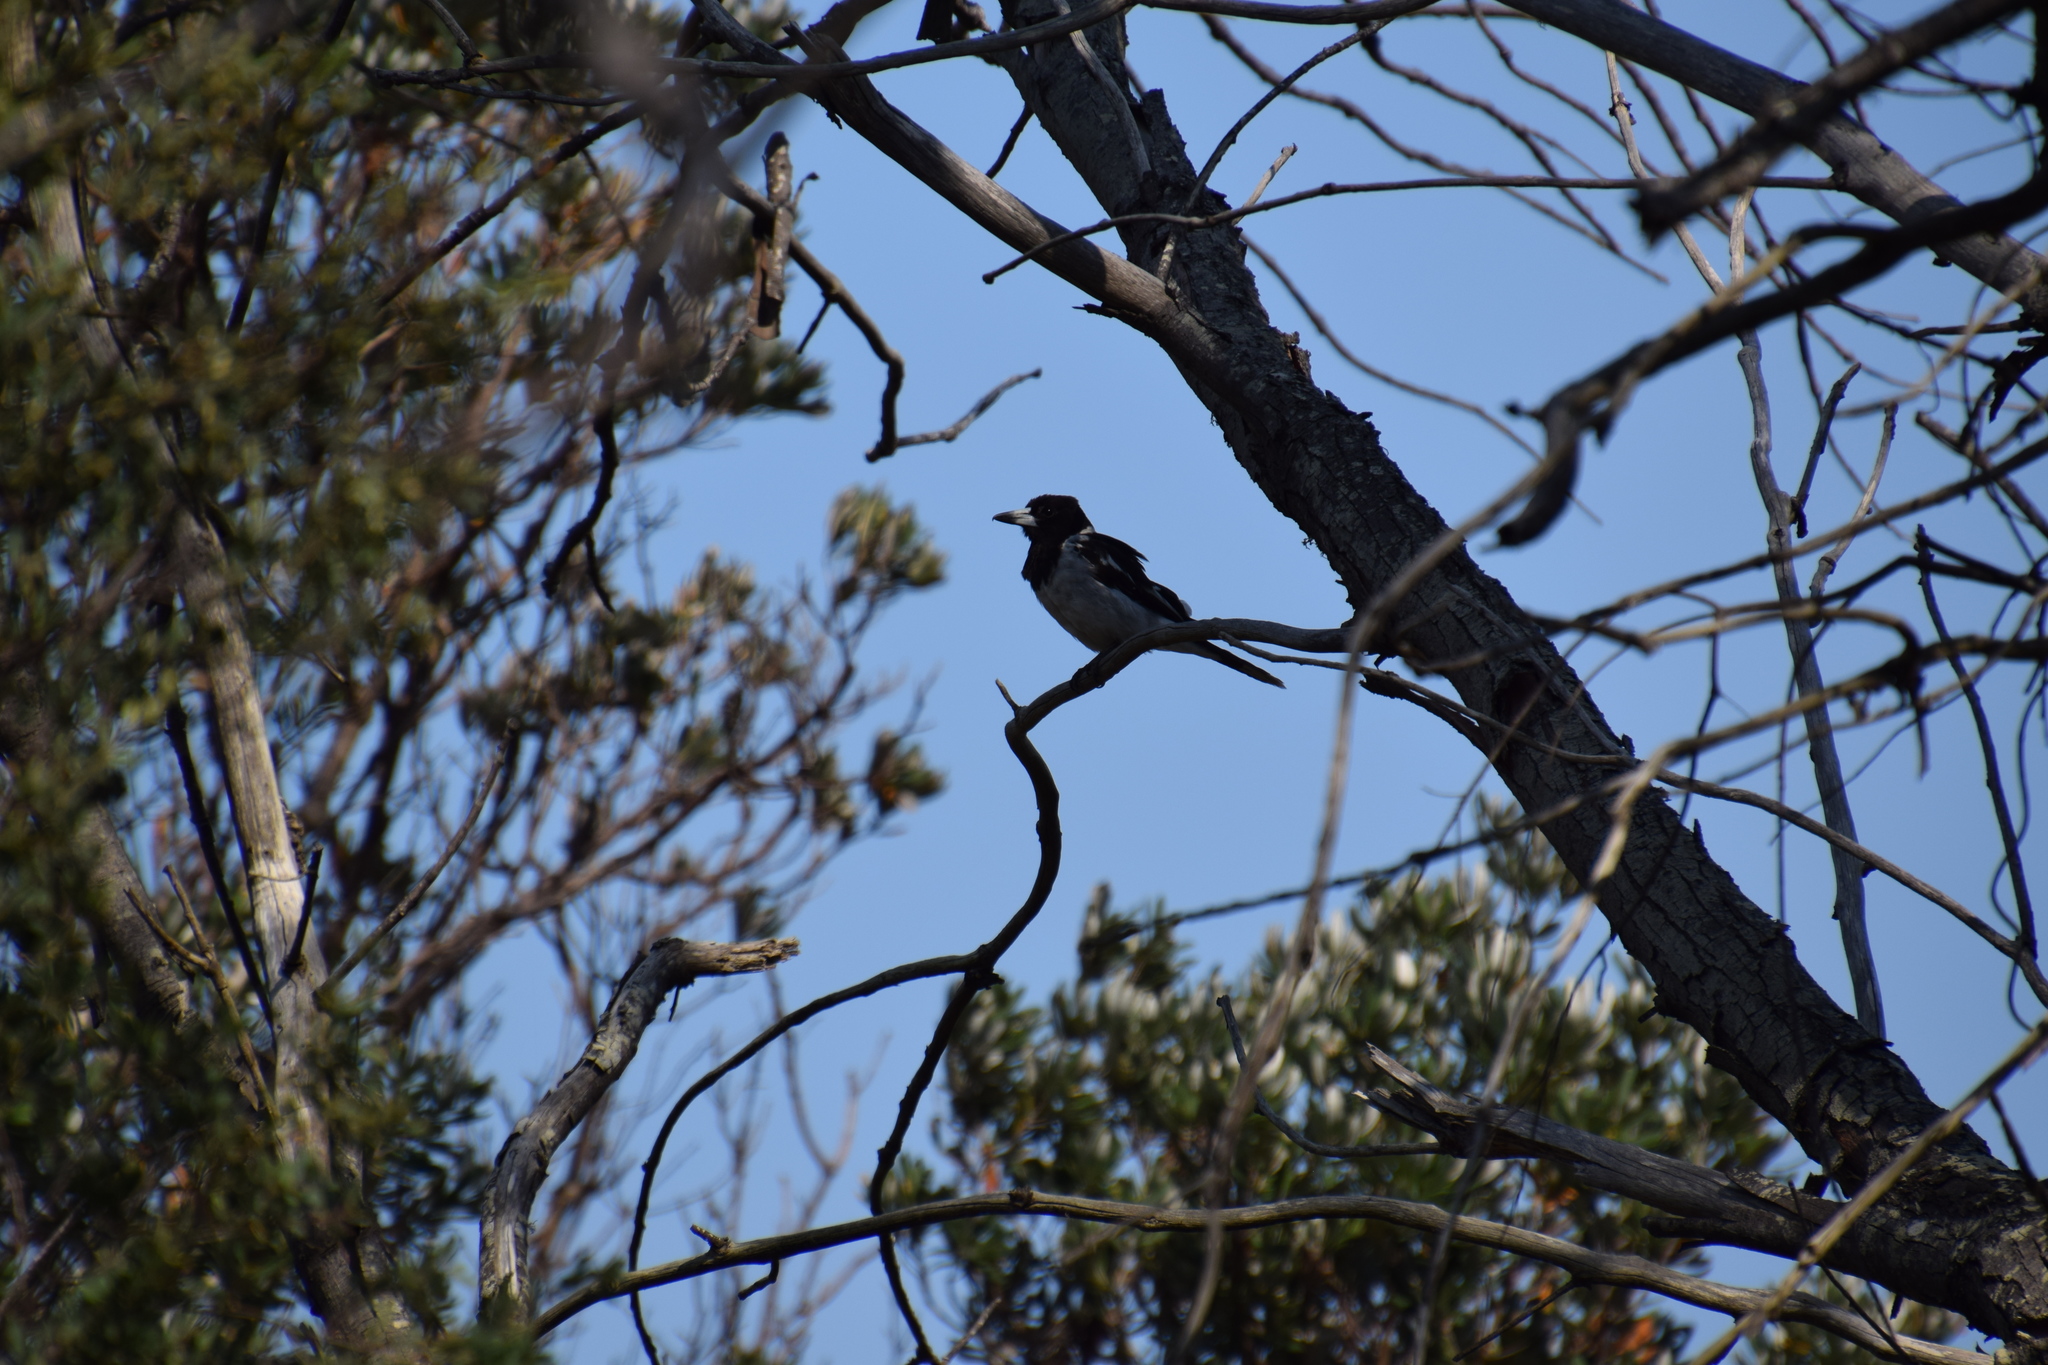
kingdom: Animalia
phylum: Chordata
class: Aves
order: Passeriformes
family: Cracticidae
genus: Cracticus
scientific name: Cracticus nigrogularis
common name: Pied butcherbird
